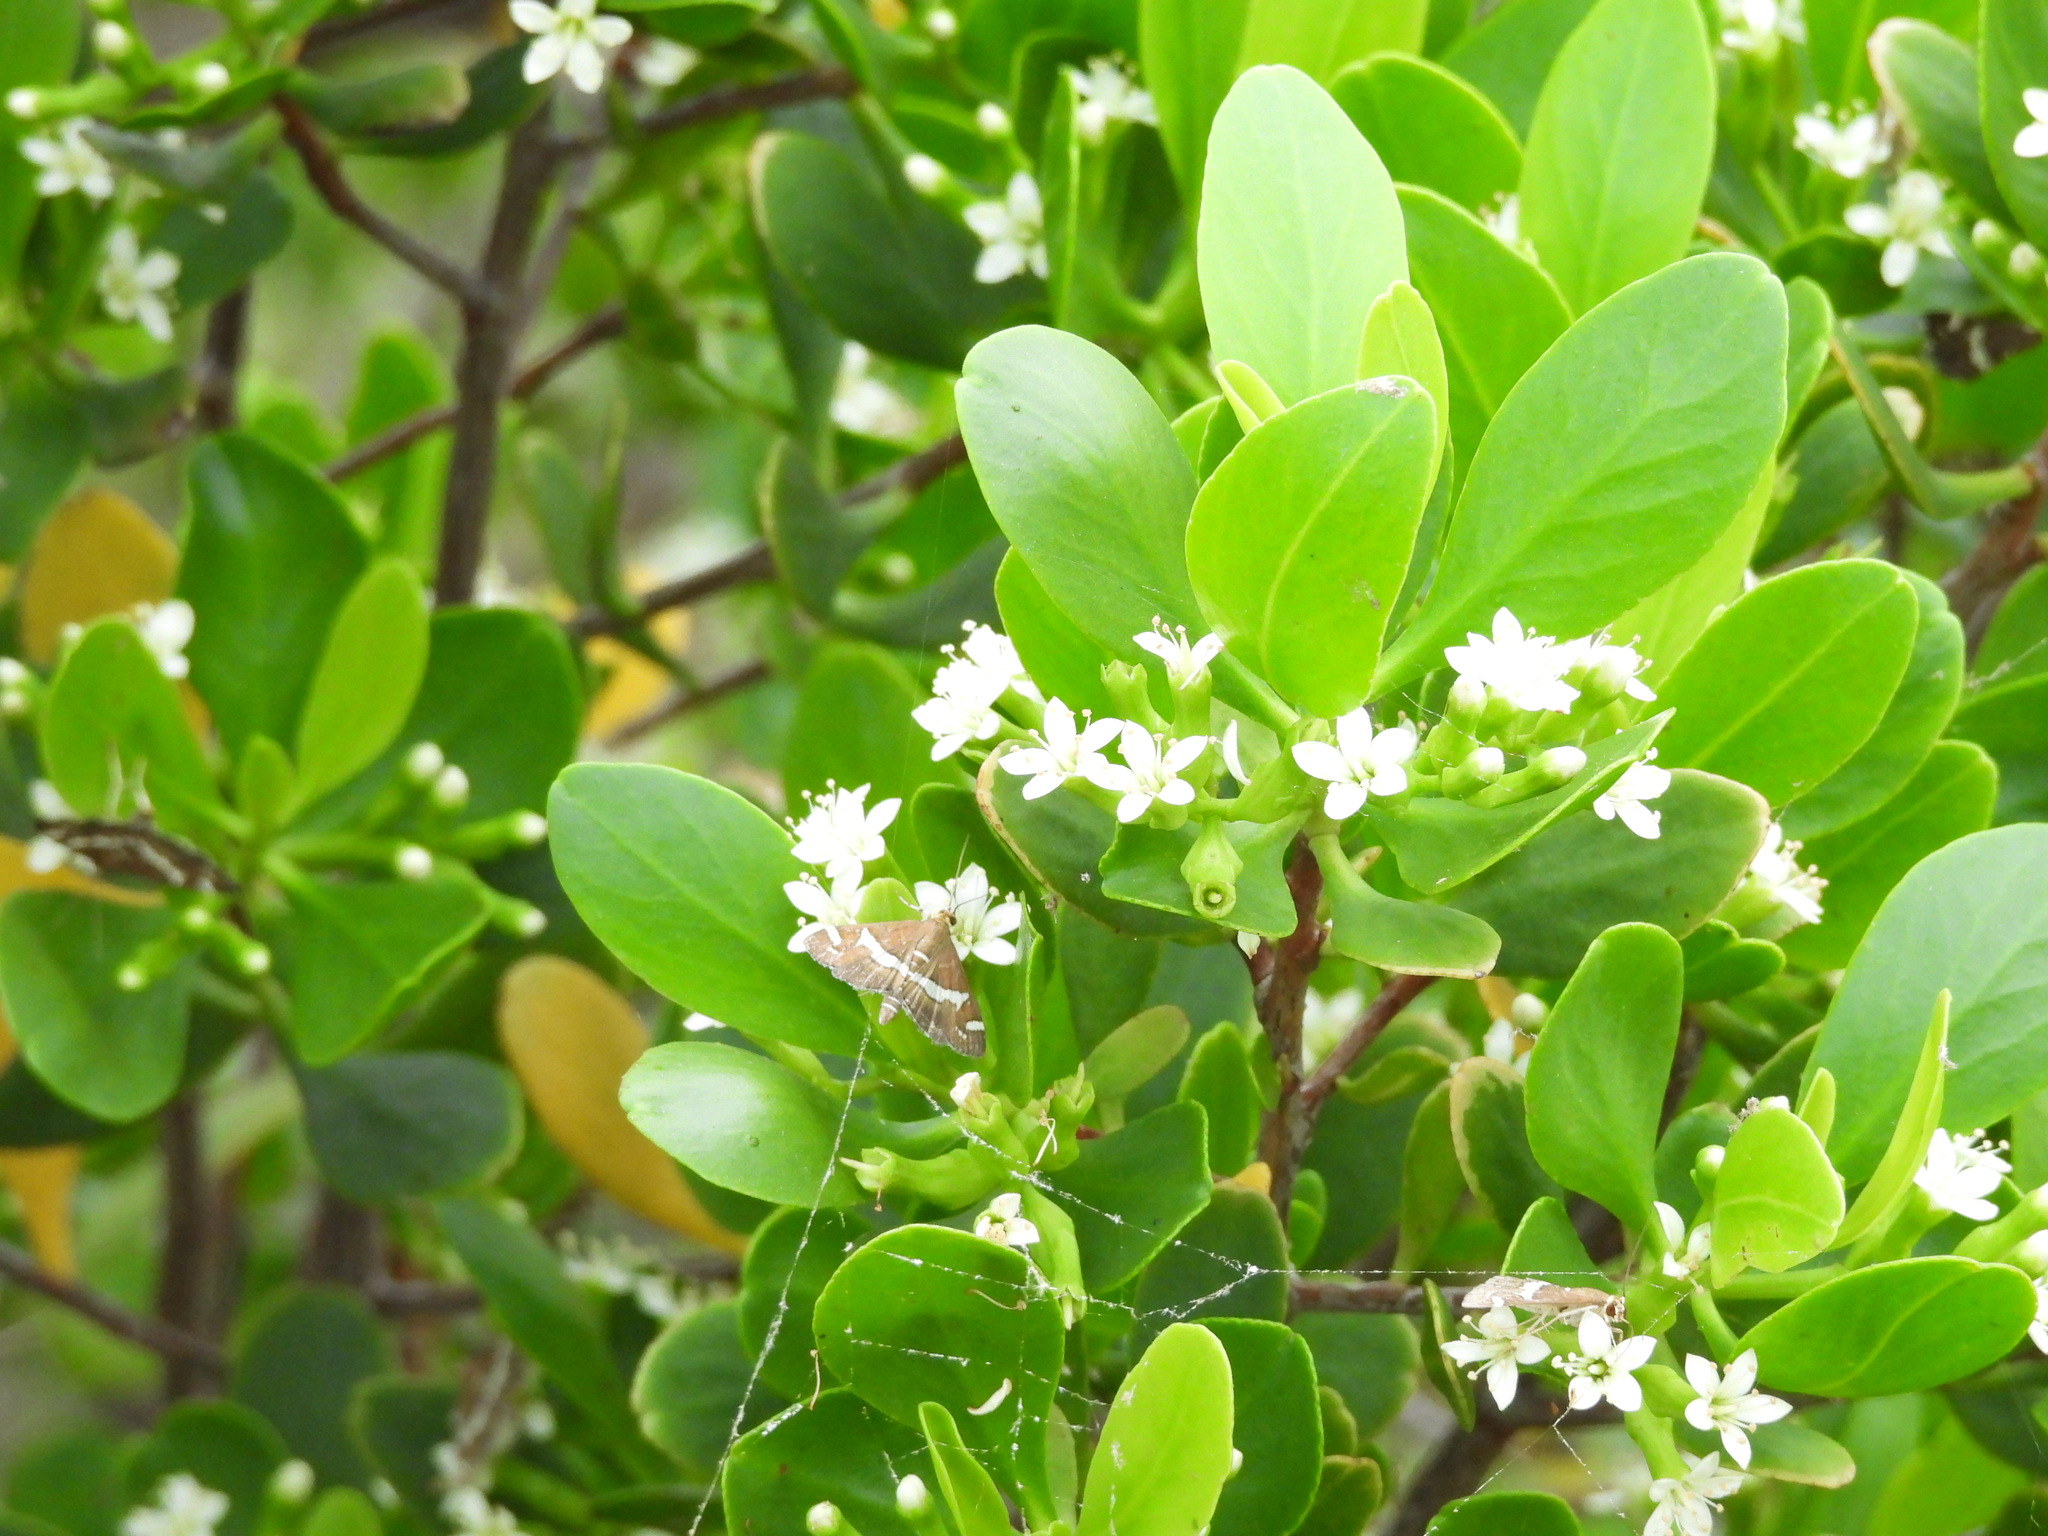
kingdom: Animalia
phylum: Arthropoda
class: Insecta
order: Lepidoptera
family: Crambidae
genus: Spoladea
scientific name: Spoladea recurvalis
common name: Beet webworm moth
